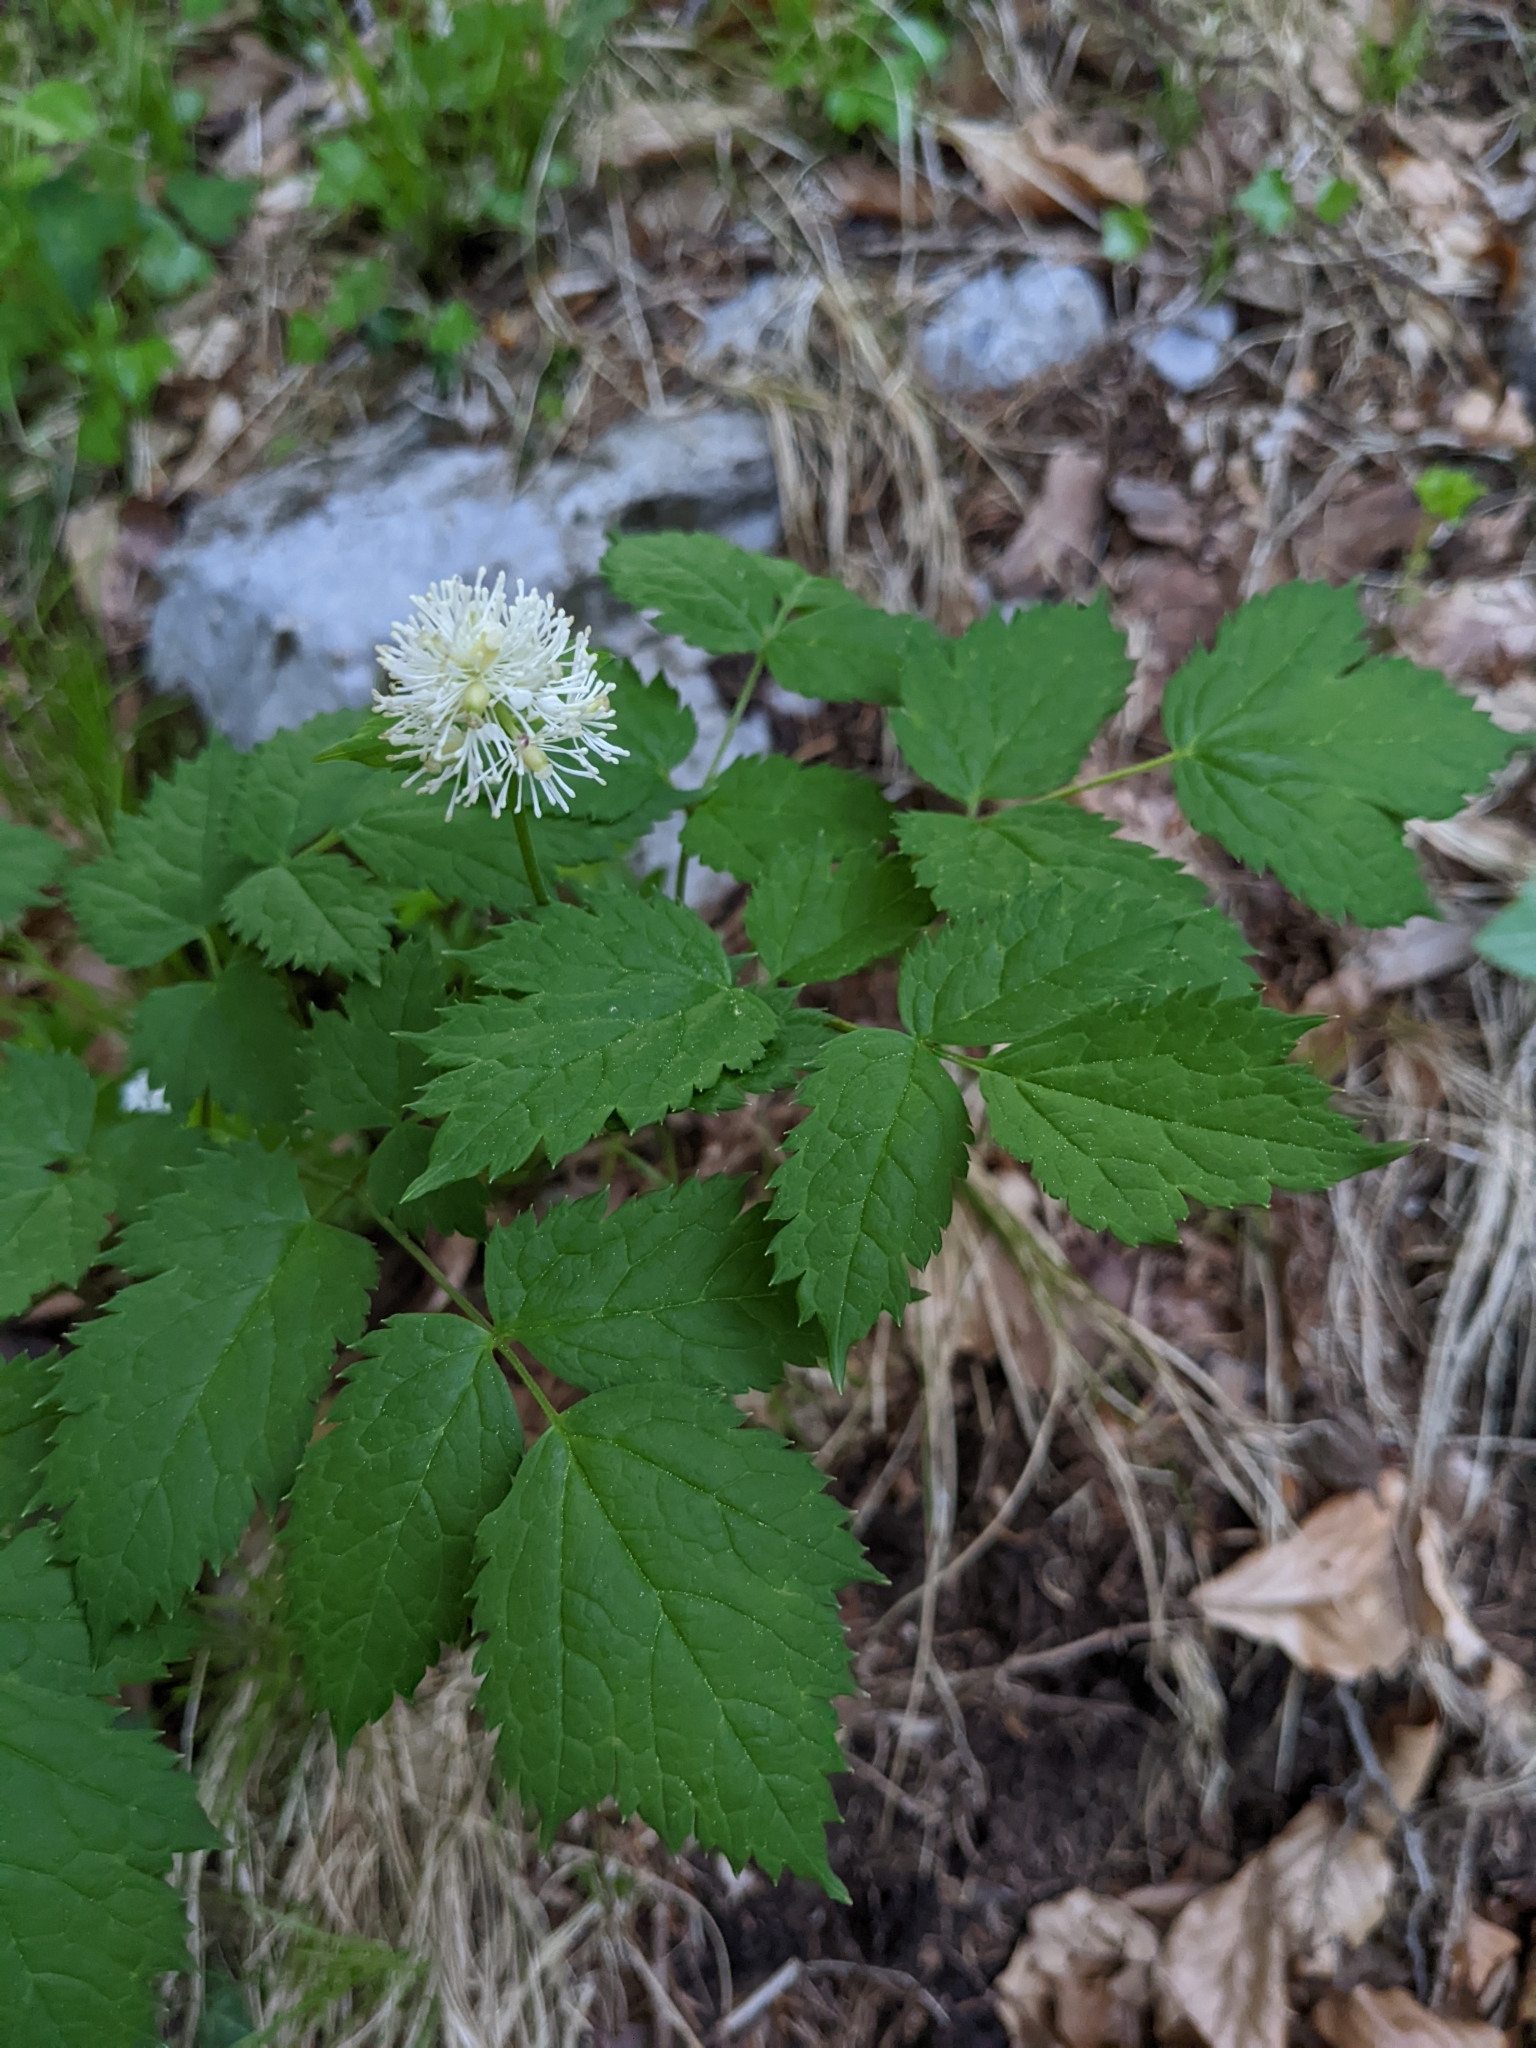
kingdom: Plantae
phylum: Tracheophyta
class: Magnoliopsida
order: Ranunculales
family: Ranunculaceae
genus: Actaea
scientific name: Actaea spicata
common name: Baneberry
